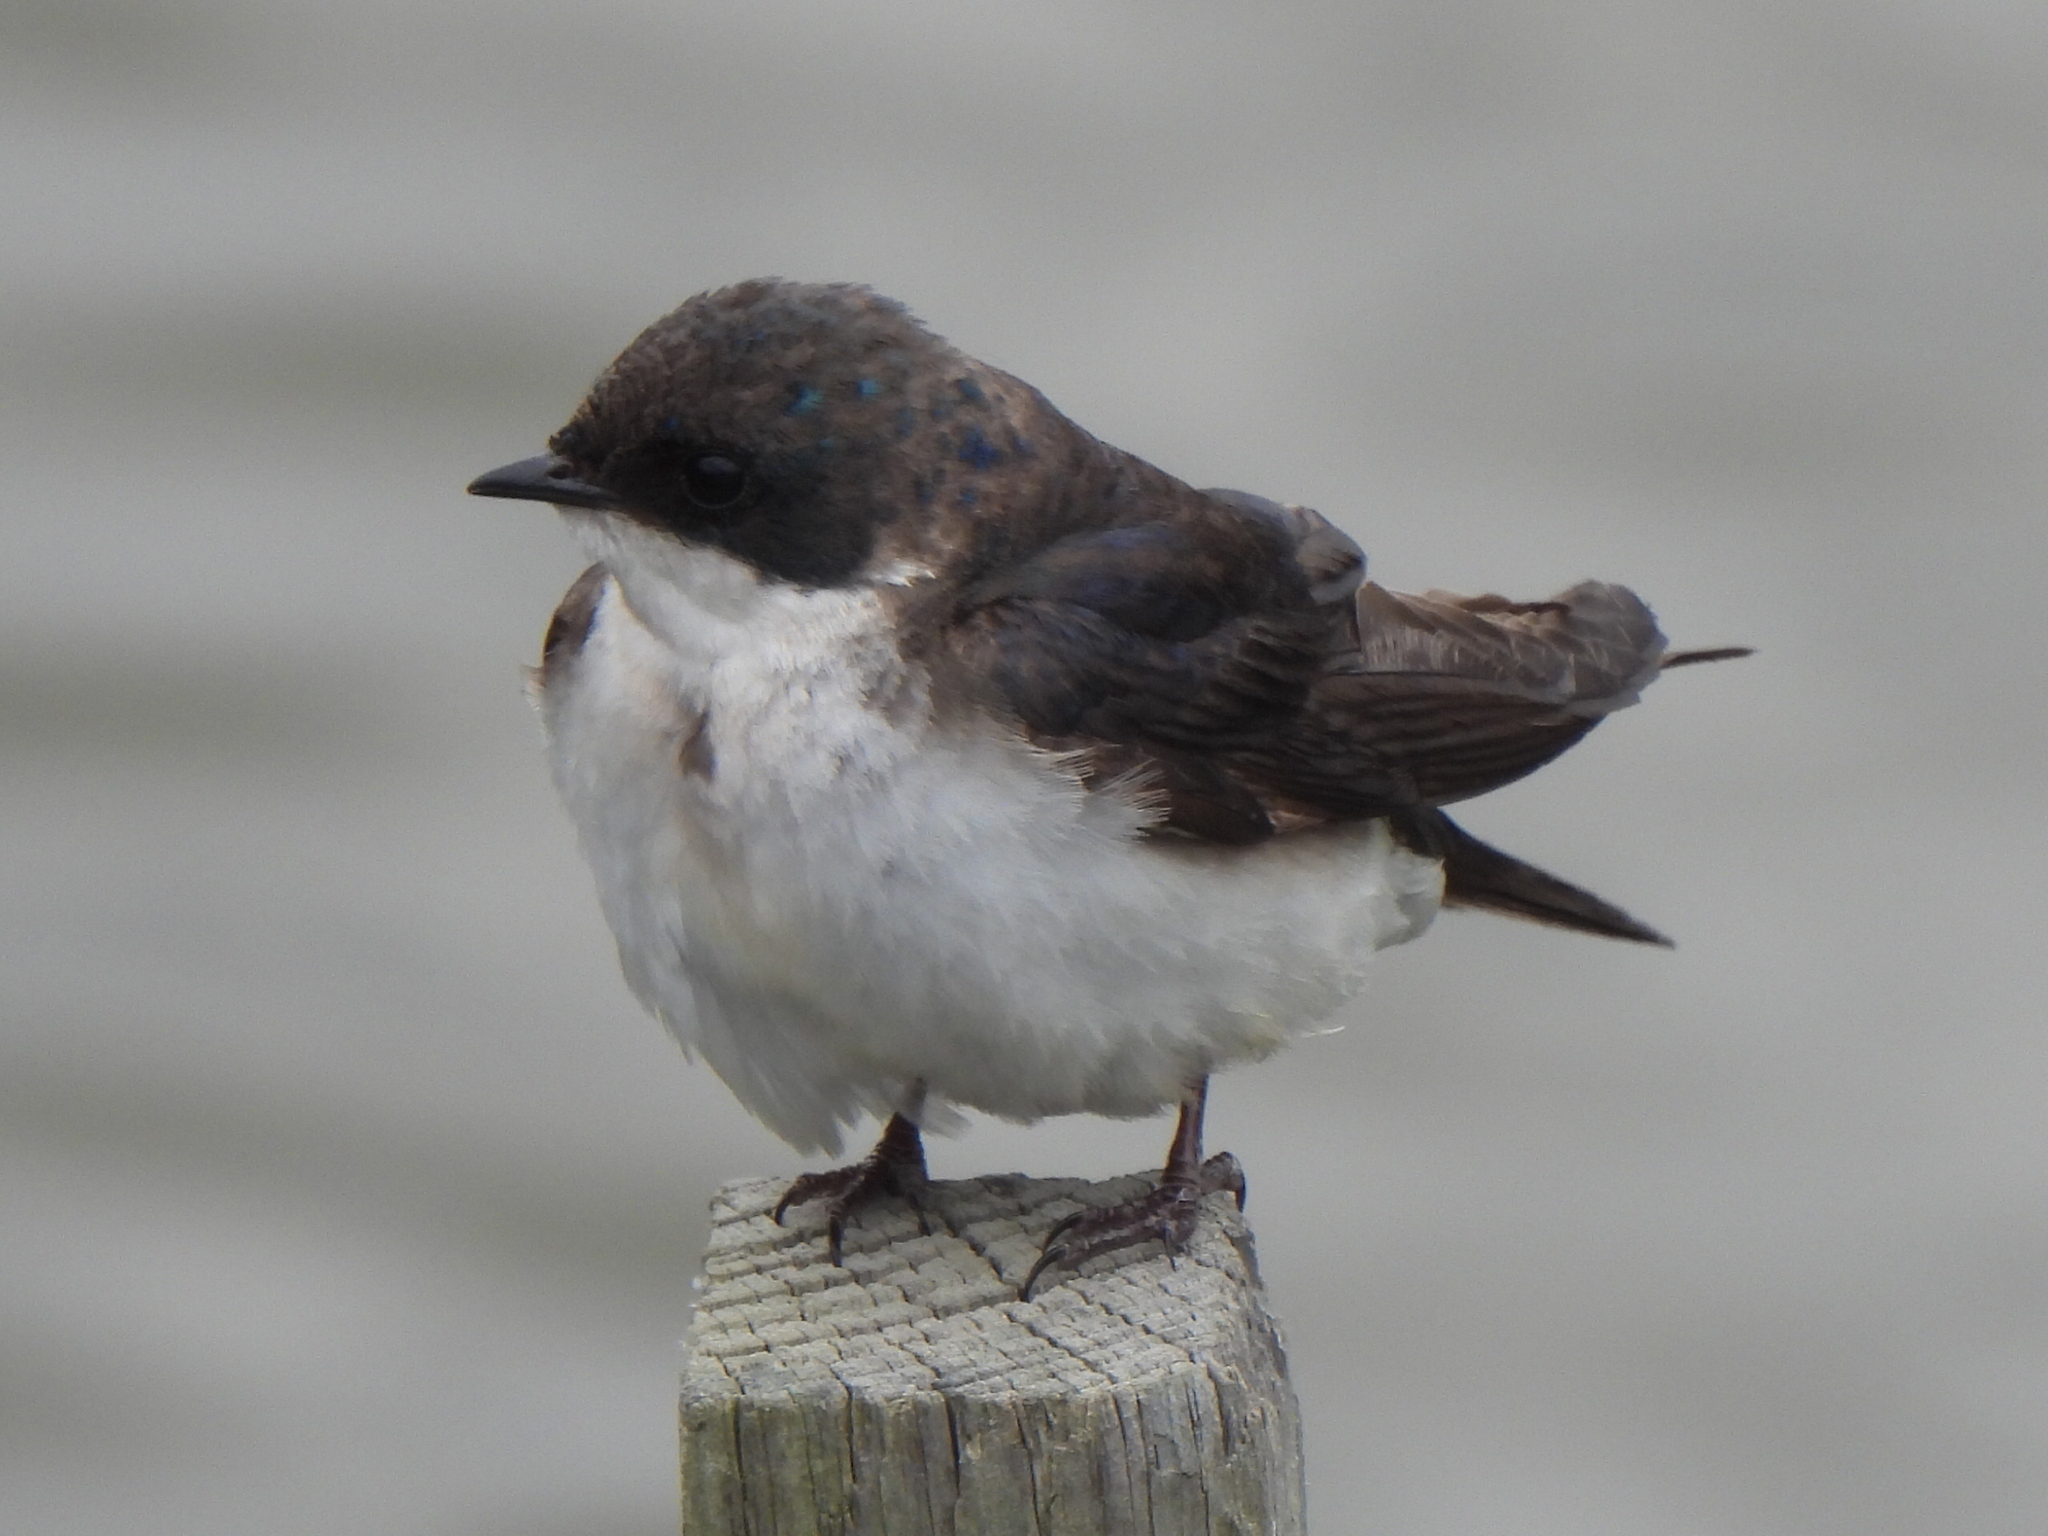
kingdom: Animalia
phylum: Chordata
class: Aves
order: Passeriformes
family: Hirundinidae
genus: Tachycineta
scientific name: Tachycineta bicolor
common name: Tree swallow
